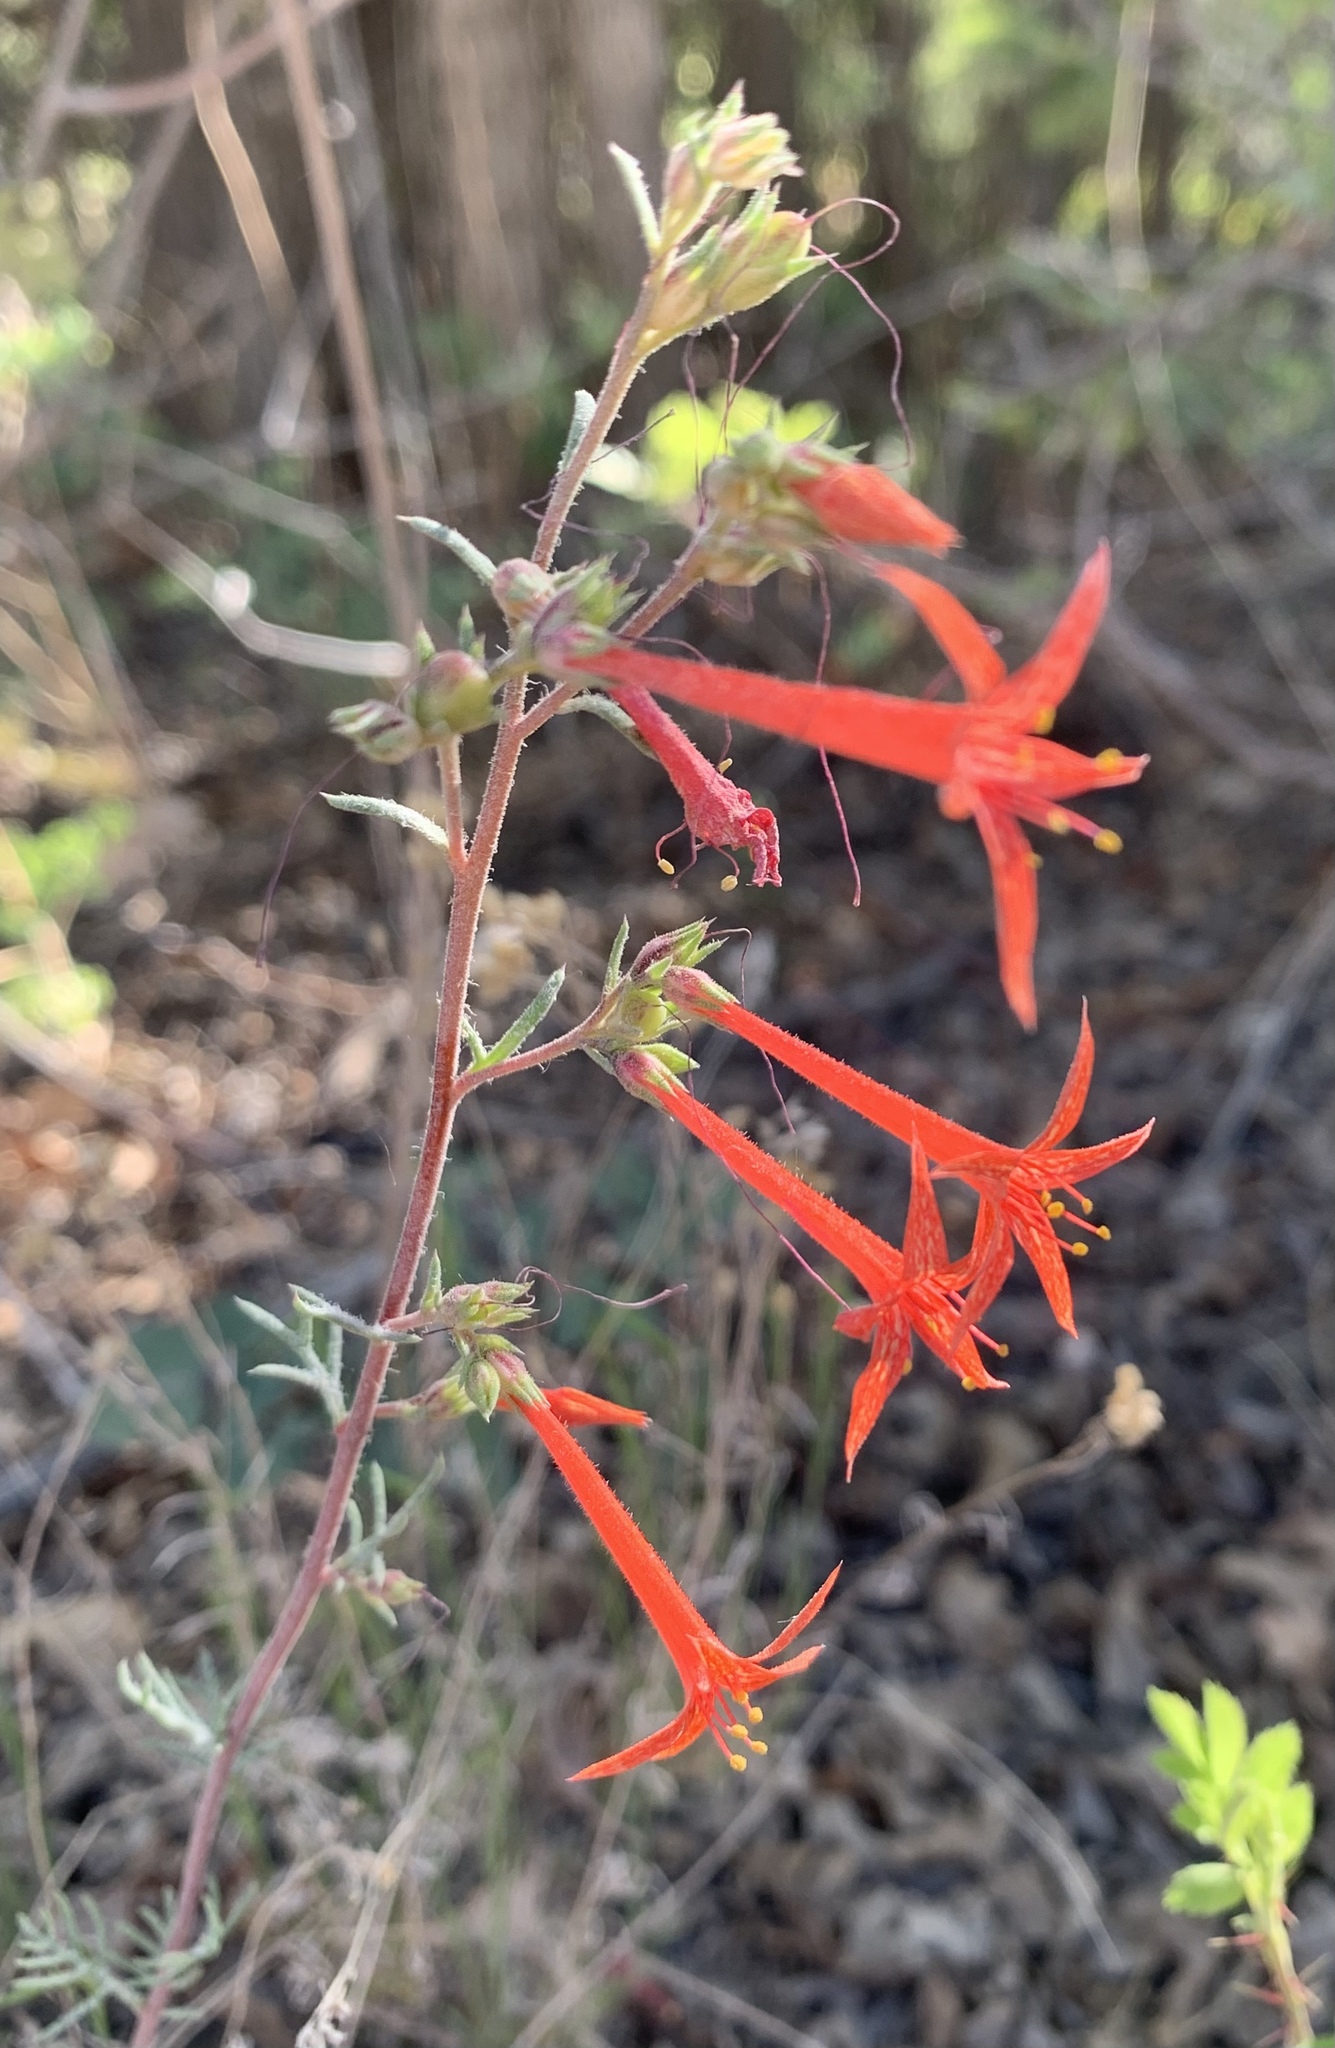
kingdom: Plantae
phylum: Tracheophyta
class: Magnoliopsida
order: Ericales
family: Polemoniaceae
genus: Ipomopsis
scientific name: Ipomopsis aggregata
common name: Scarlet gilia
